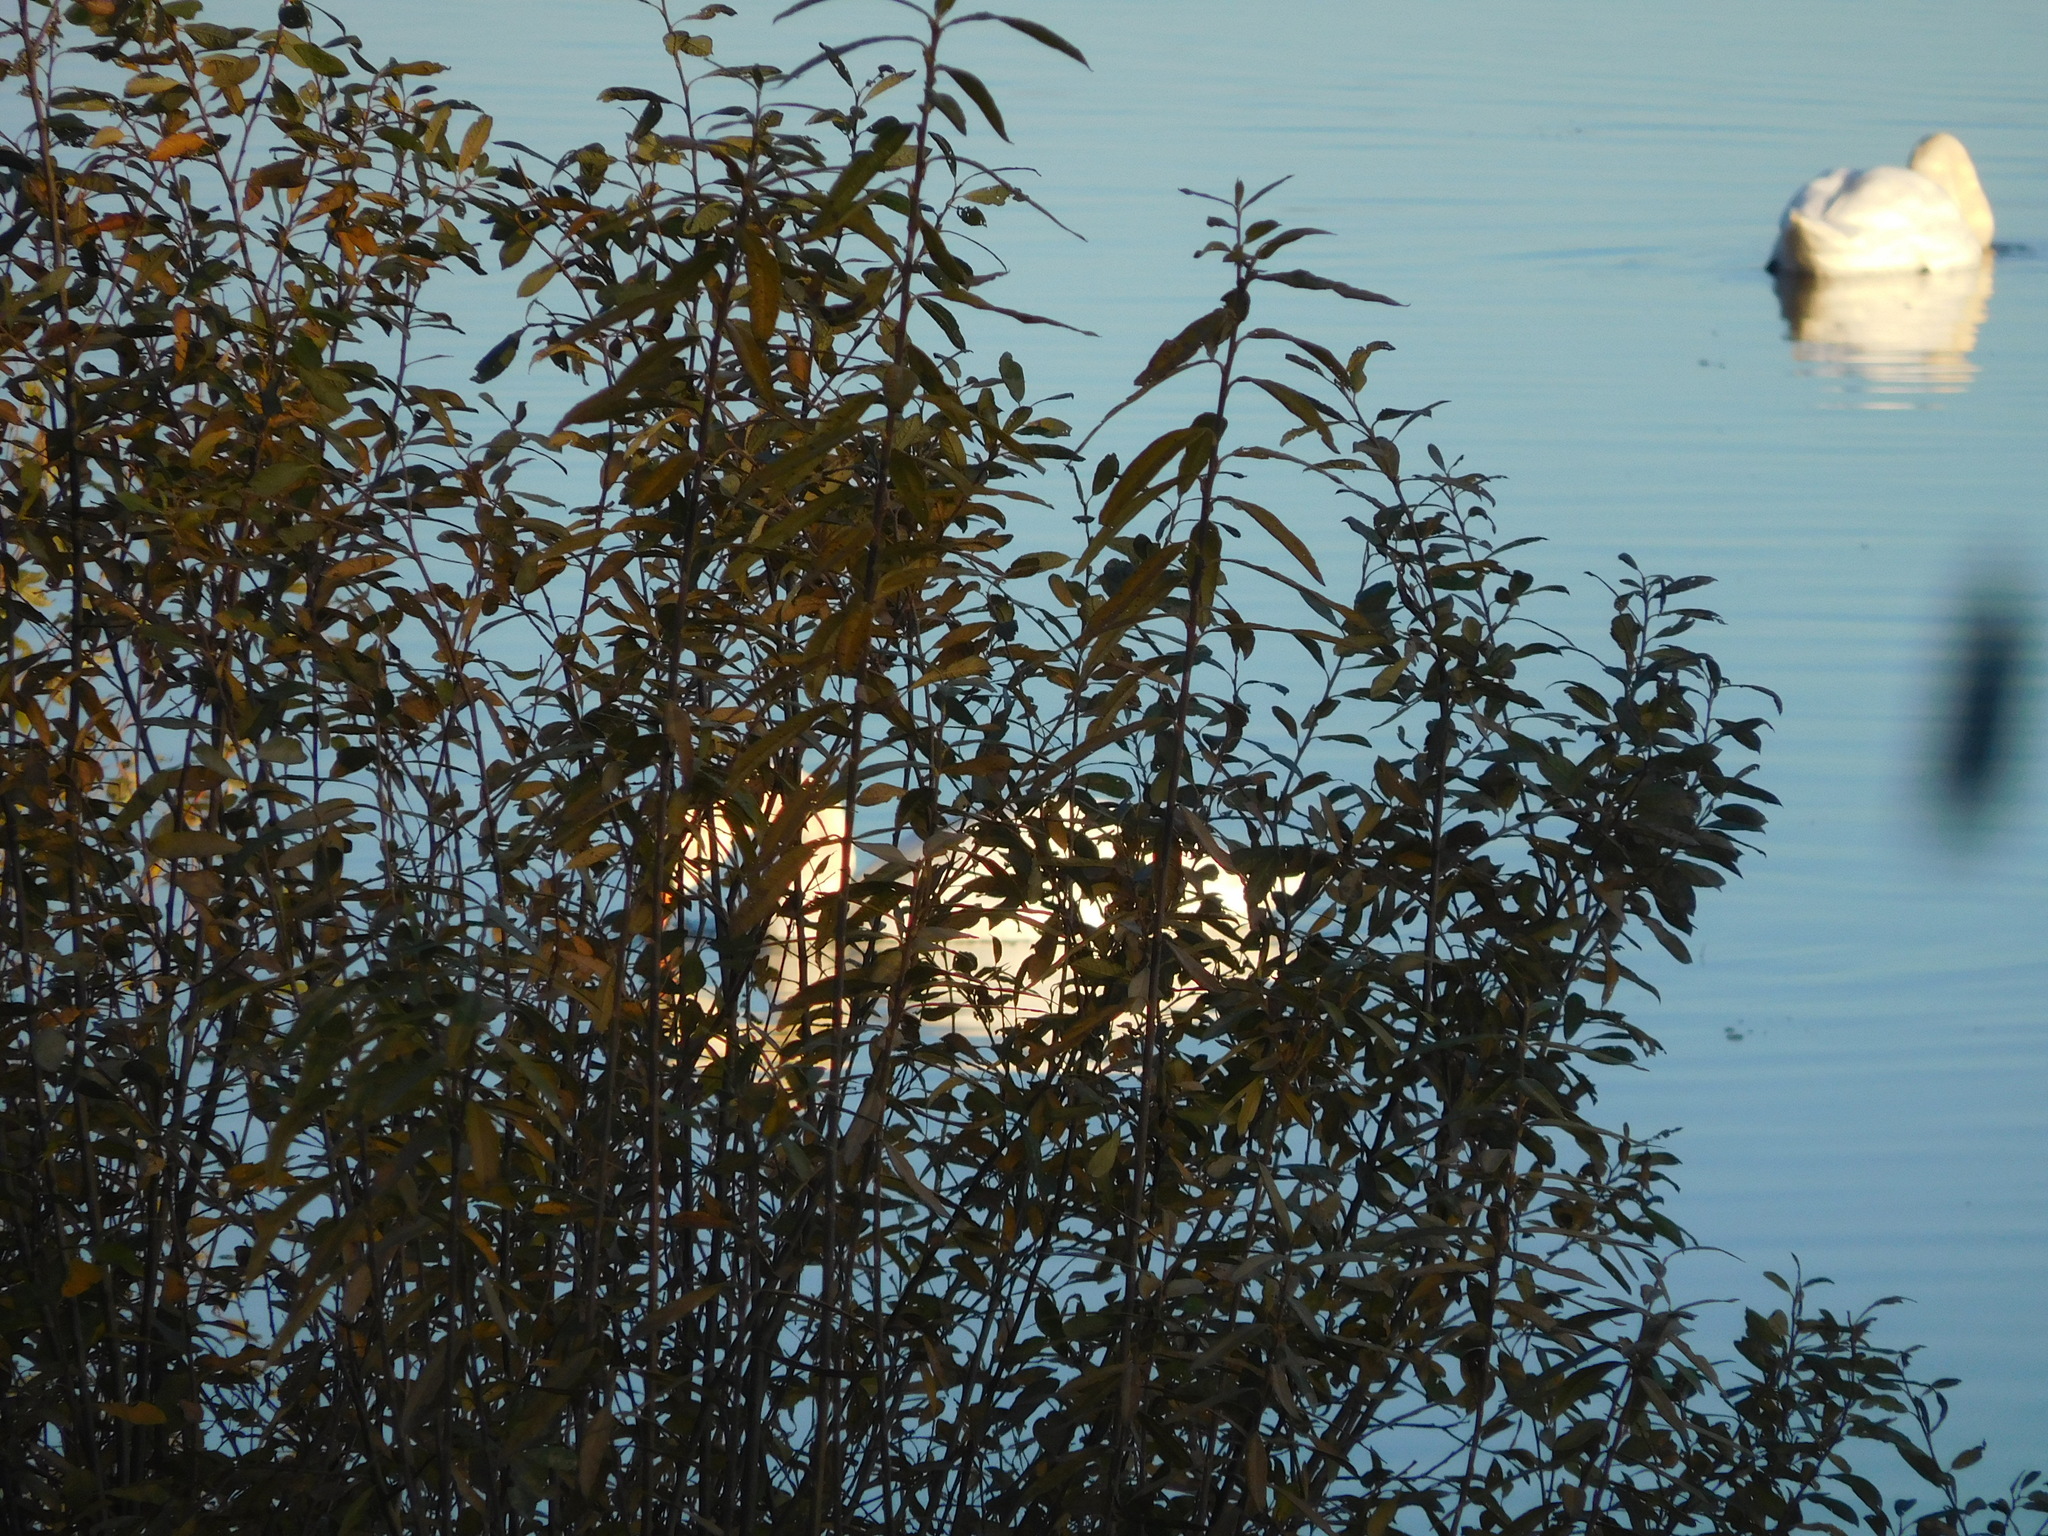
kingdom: Animalia
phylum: Chordata
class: Aves
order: Anseriformes
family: Anatidae
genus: Cygnus
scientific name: Cygnus olor
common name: Mute swan
